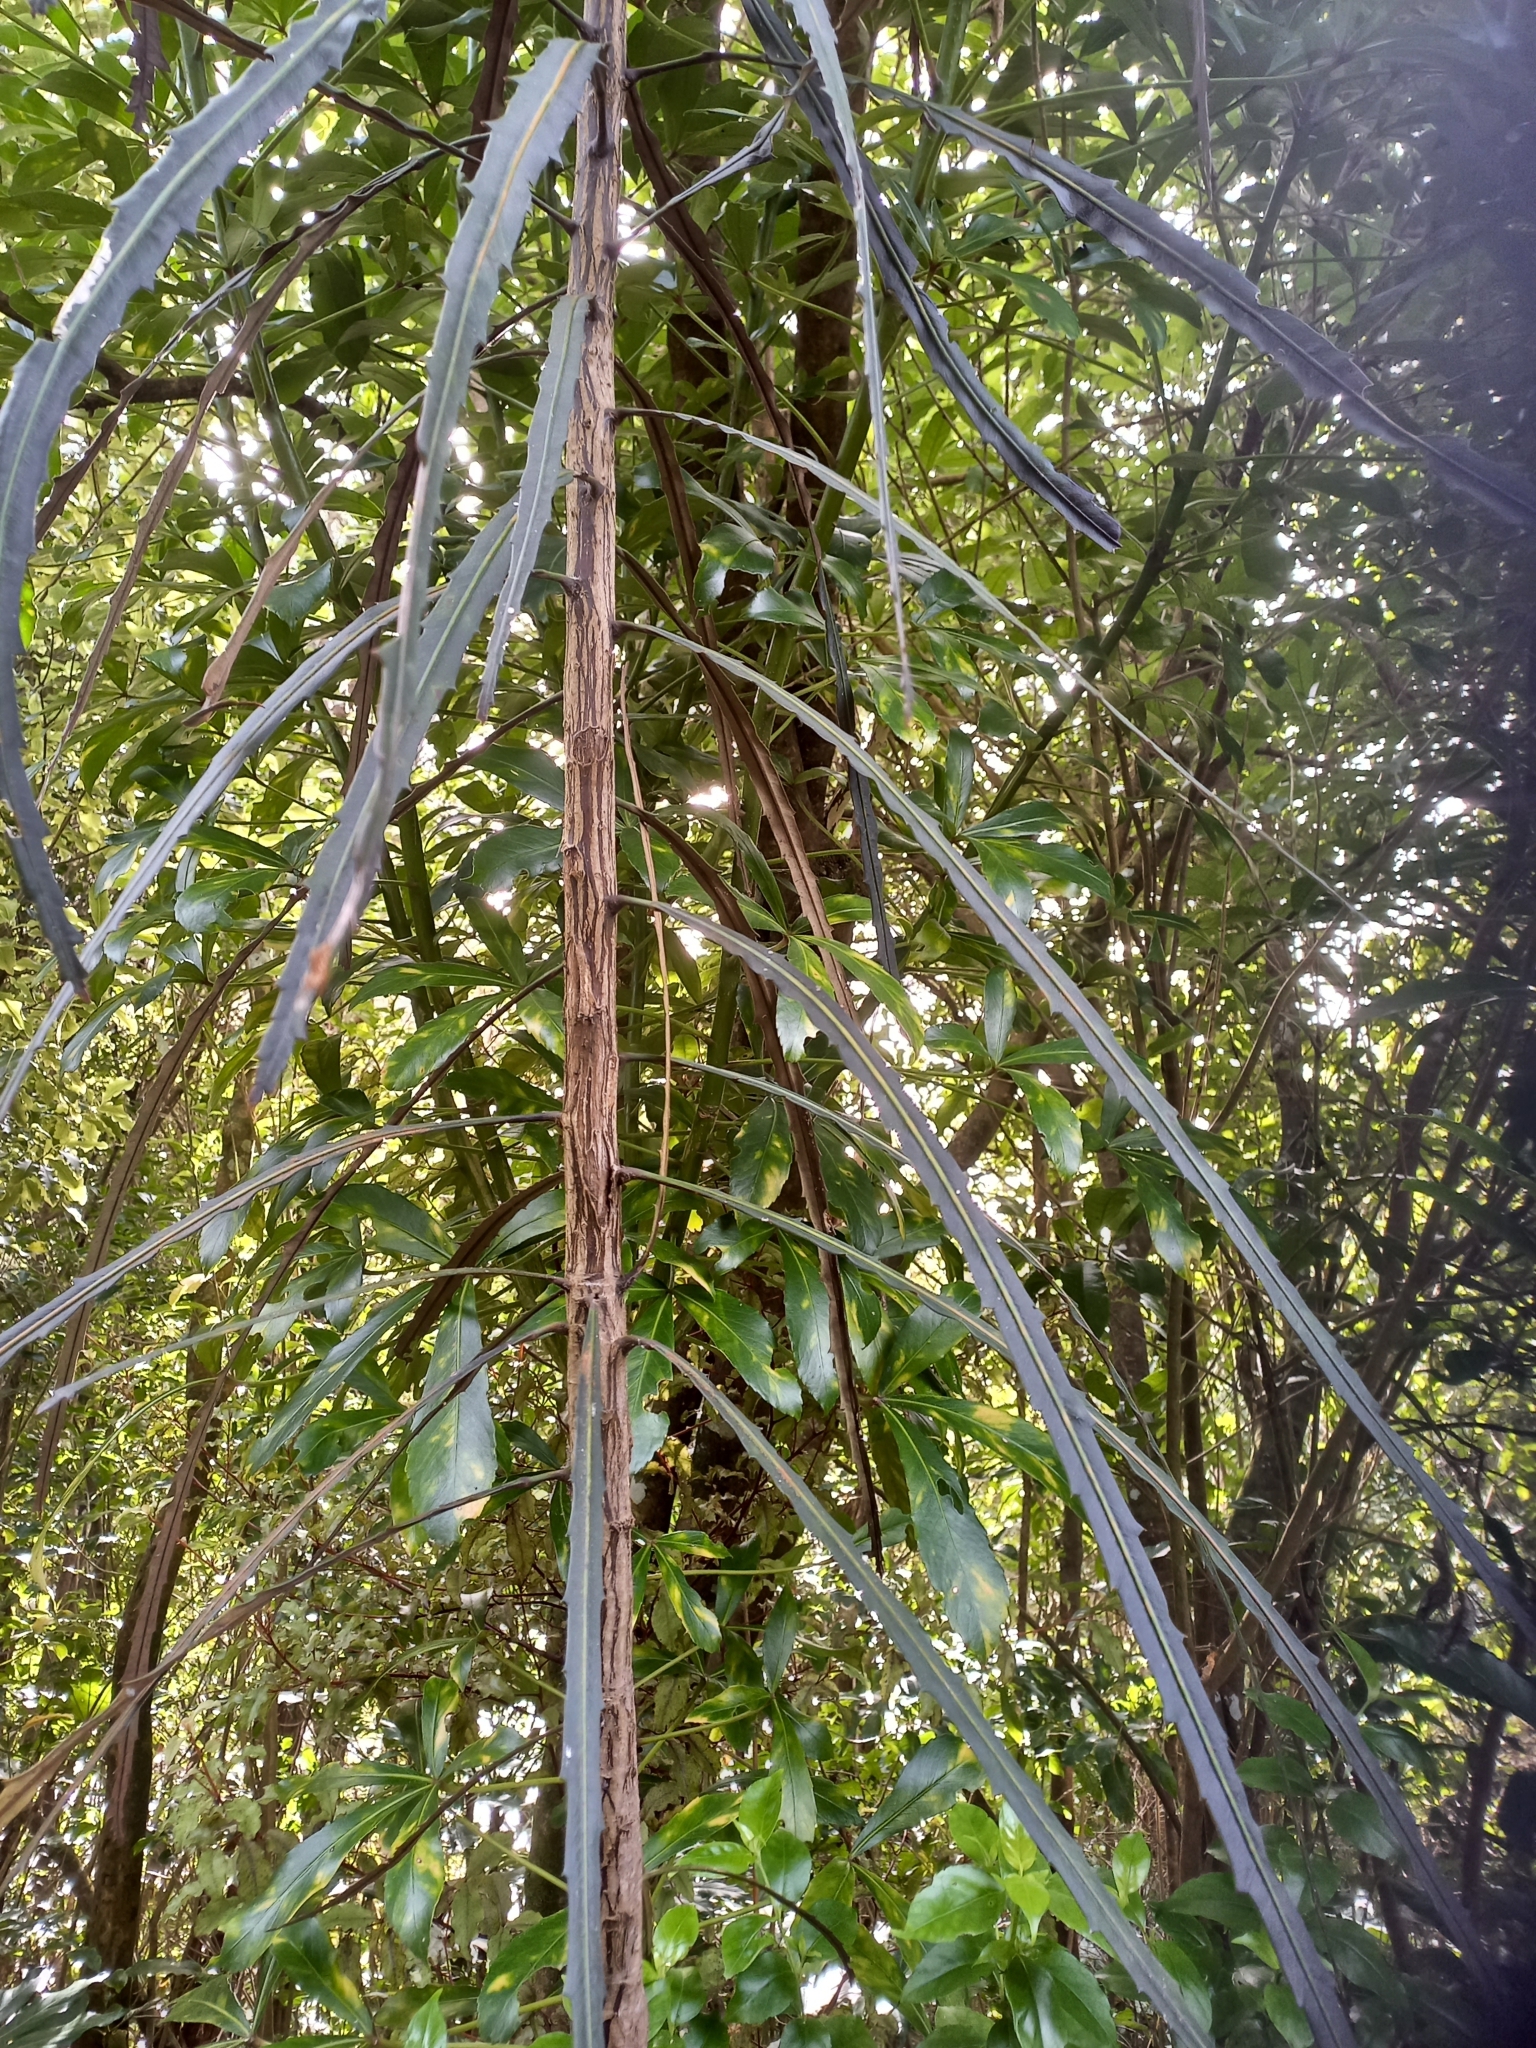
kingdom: Plantae
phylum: Tracheophyta
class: Magnoliopsida
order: Apiales
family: Araliaceae
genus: Pseudopanax
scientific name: Pseudopanax crassifolius
